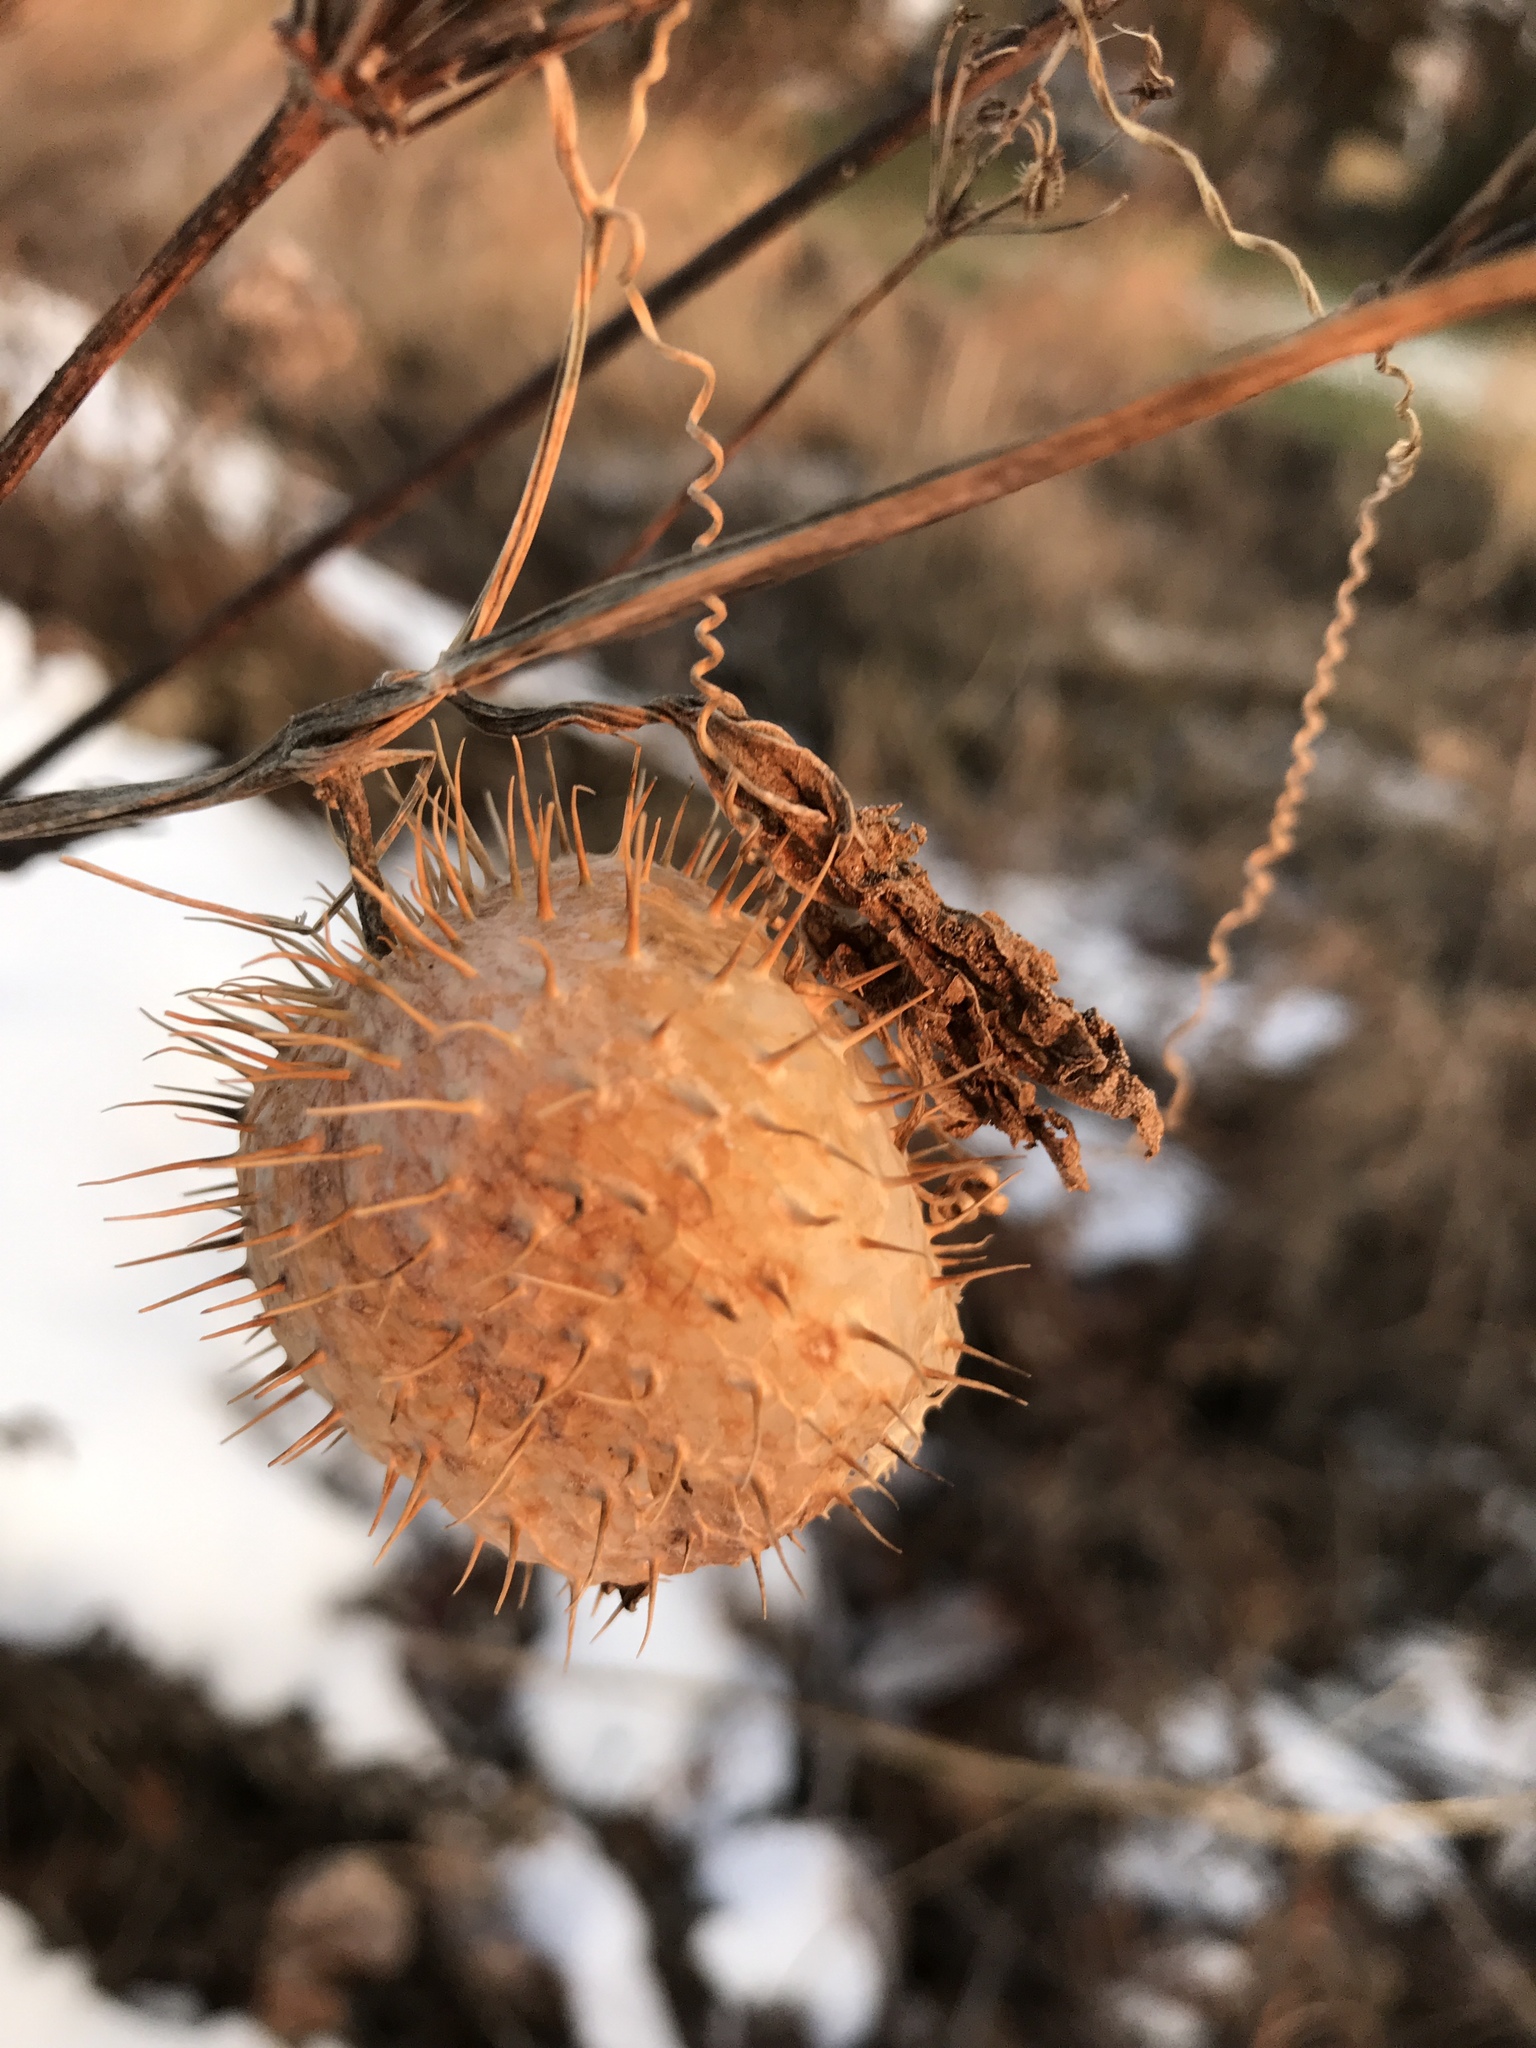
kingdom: Plantae
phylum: Tracheophyta
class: Magnoliopsida
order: Cucurbitales
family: Cucurbitaceae
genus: Echinocystis
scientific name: Echinocystis lobata
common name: Wild cucumber
